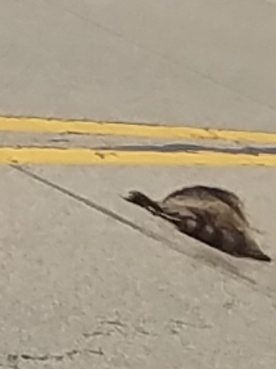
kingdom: Animalia
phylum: Chordata
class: Mammalia
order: Carnivora
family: Procyonidae
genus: Procyon
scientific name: Procyon lotor
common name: Raccoon
